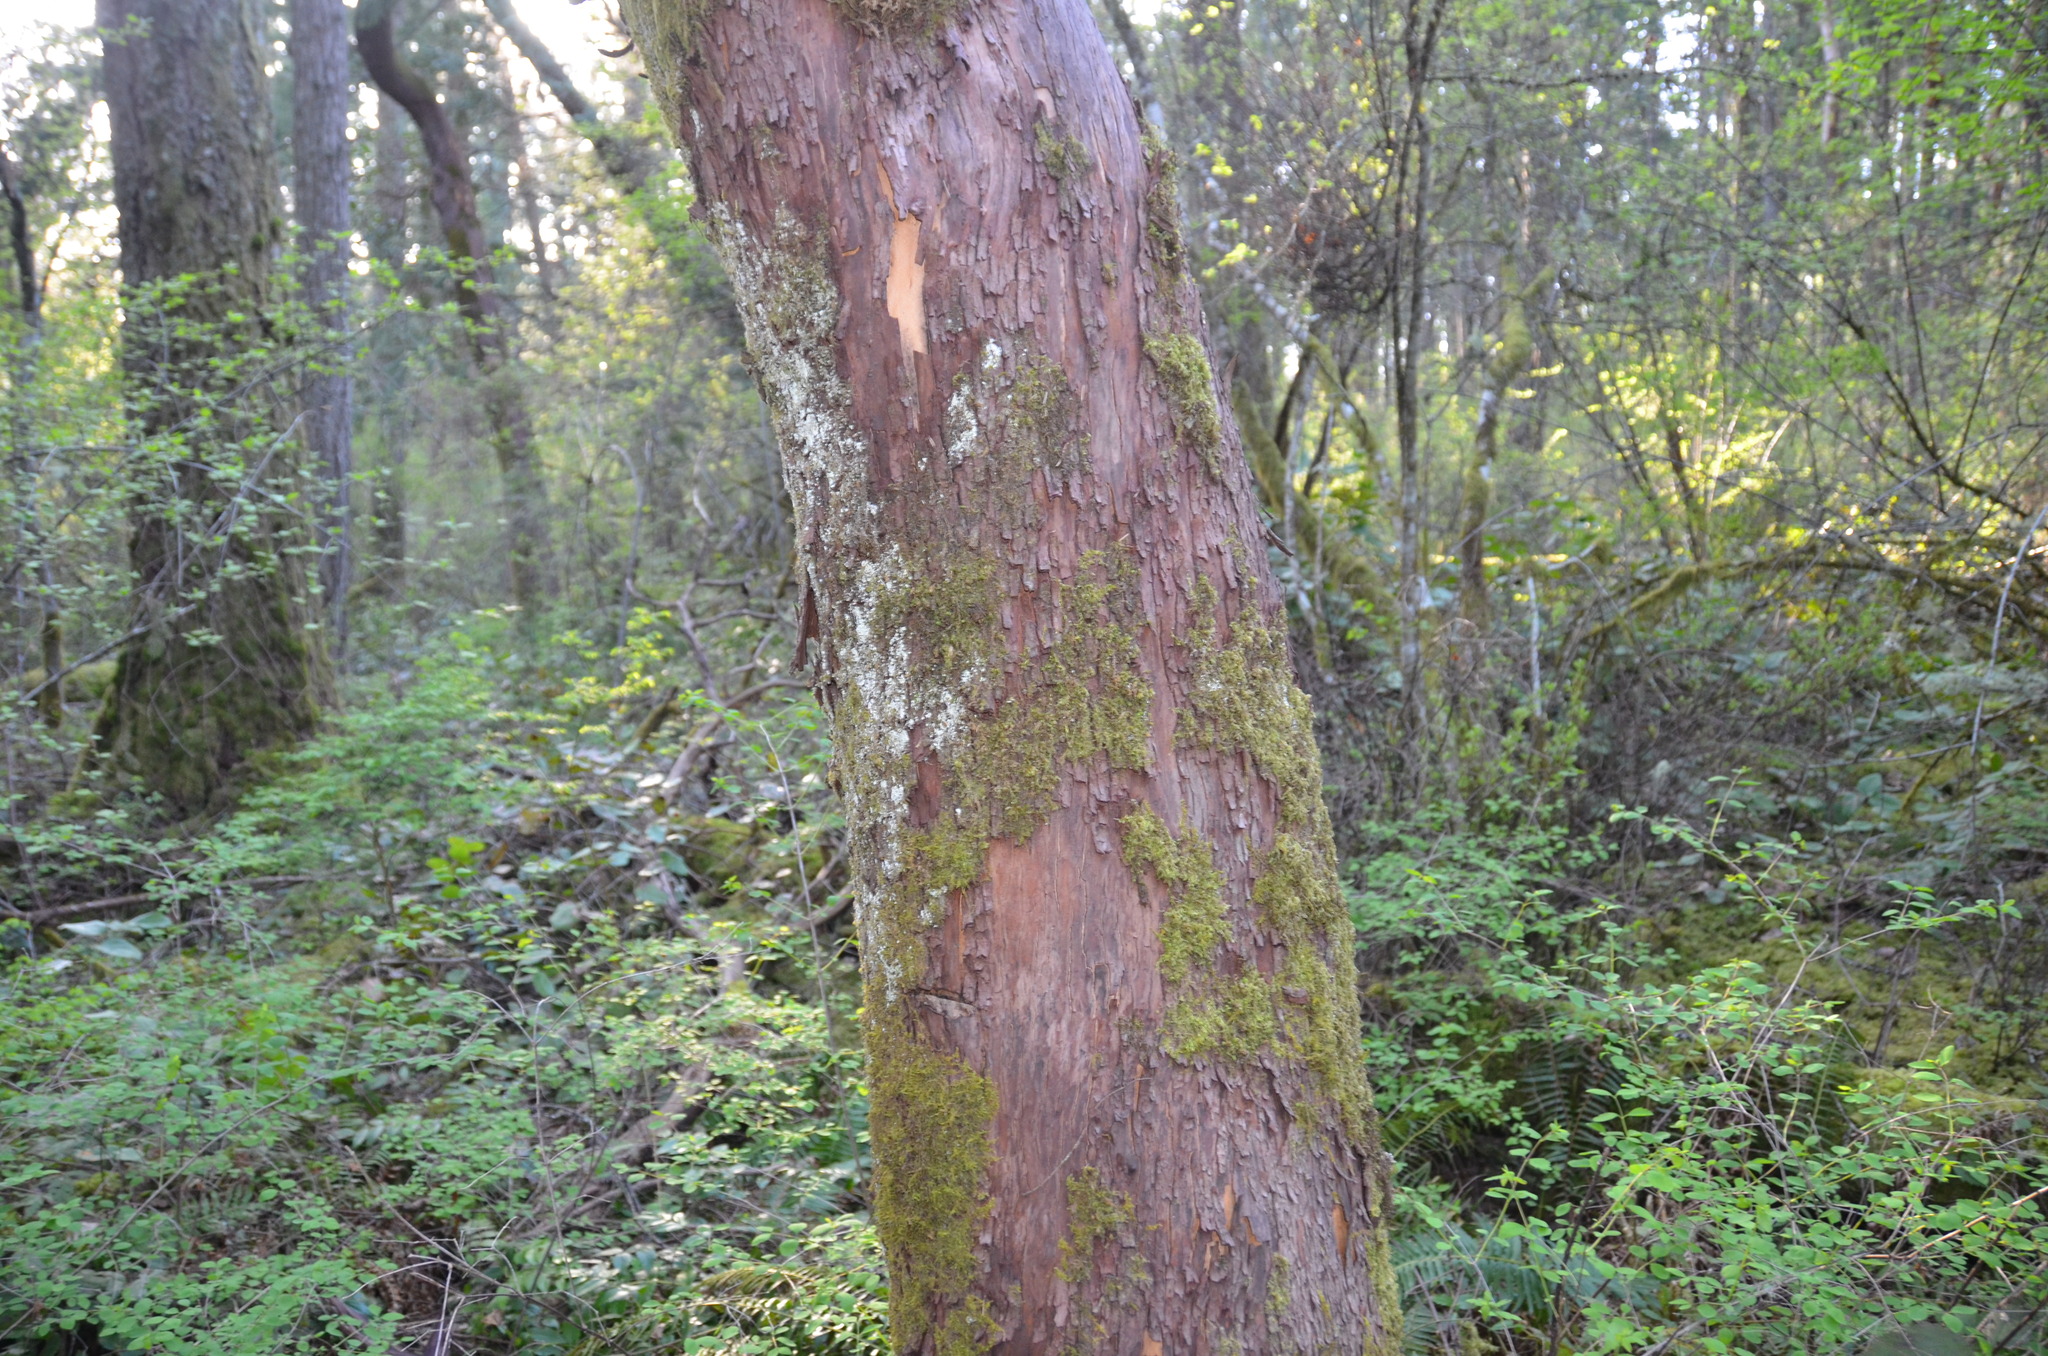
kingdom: Plantae
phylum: Tracheophyta
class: Magnoliopsida
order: Ericales
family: Ericaceae
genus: Arbutus
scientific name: Arbutus menziesii
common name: Pacific madrone
